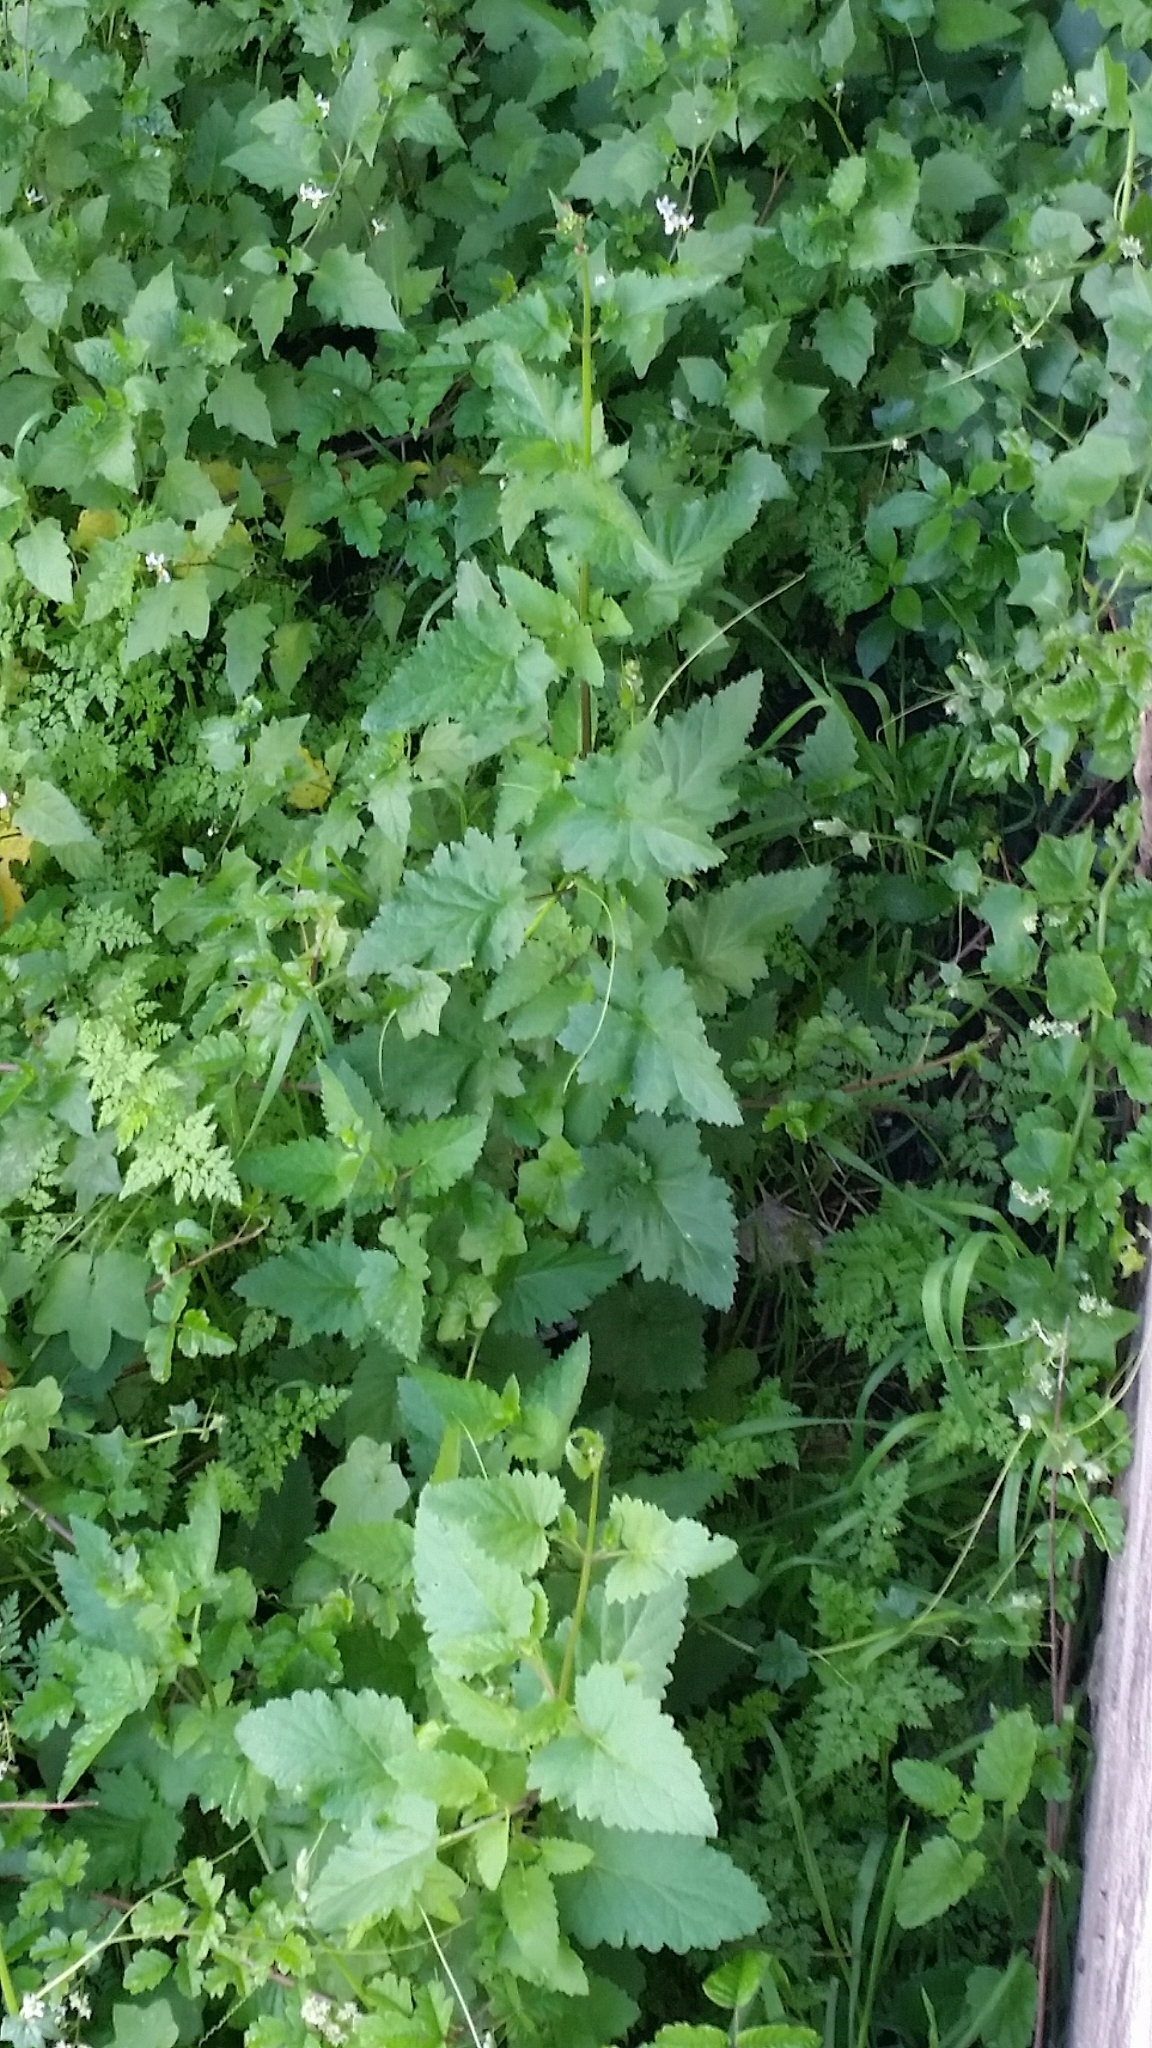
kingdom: Plantae
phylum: Tracheophyta
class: Magnoliopsida
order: Lamiales
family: Scrophulariaceae
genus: Scrophularia
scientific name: Scrophularia californica
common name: California figwort
